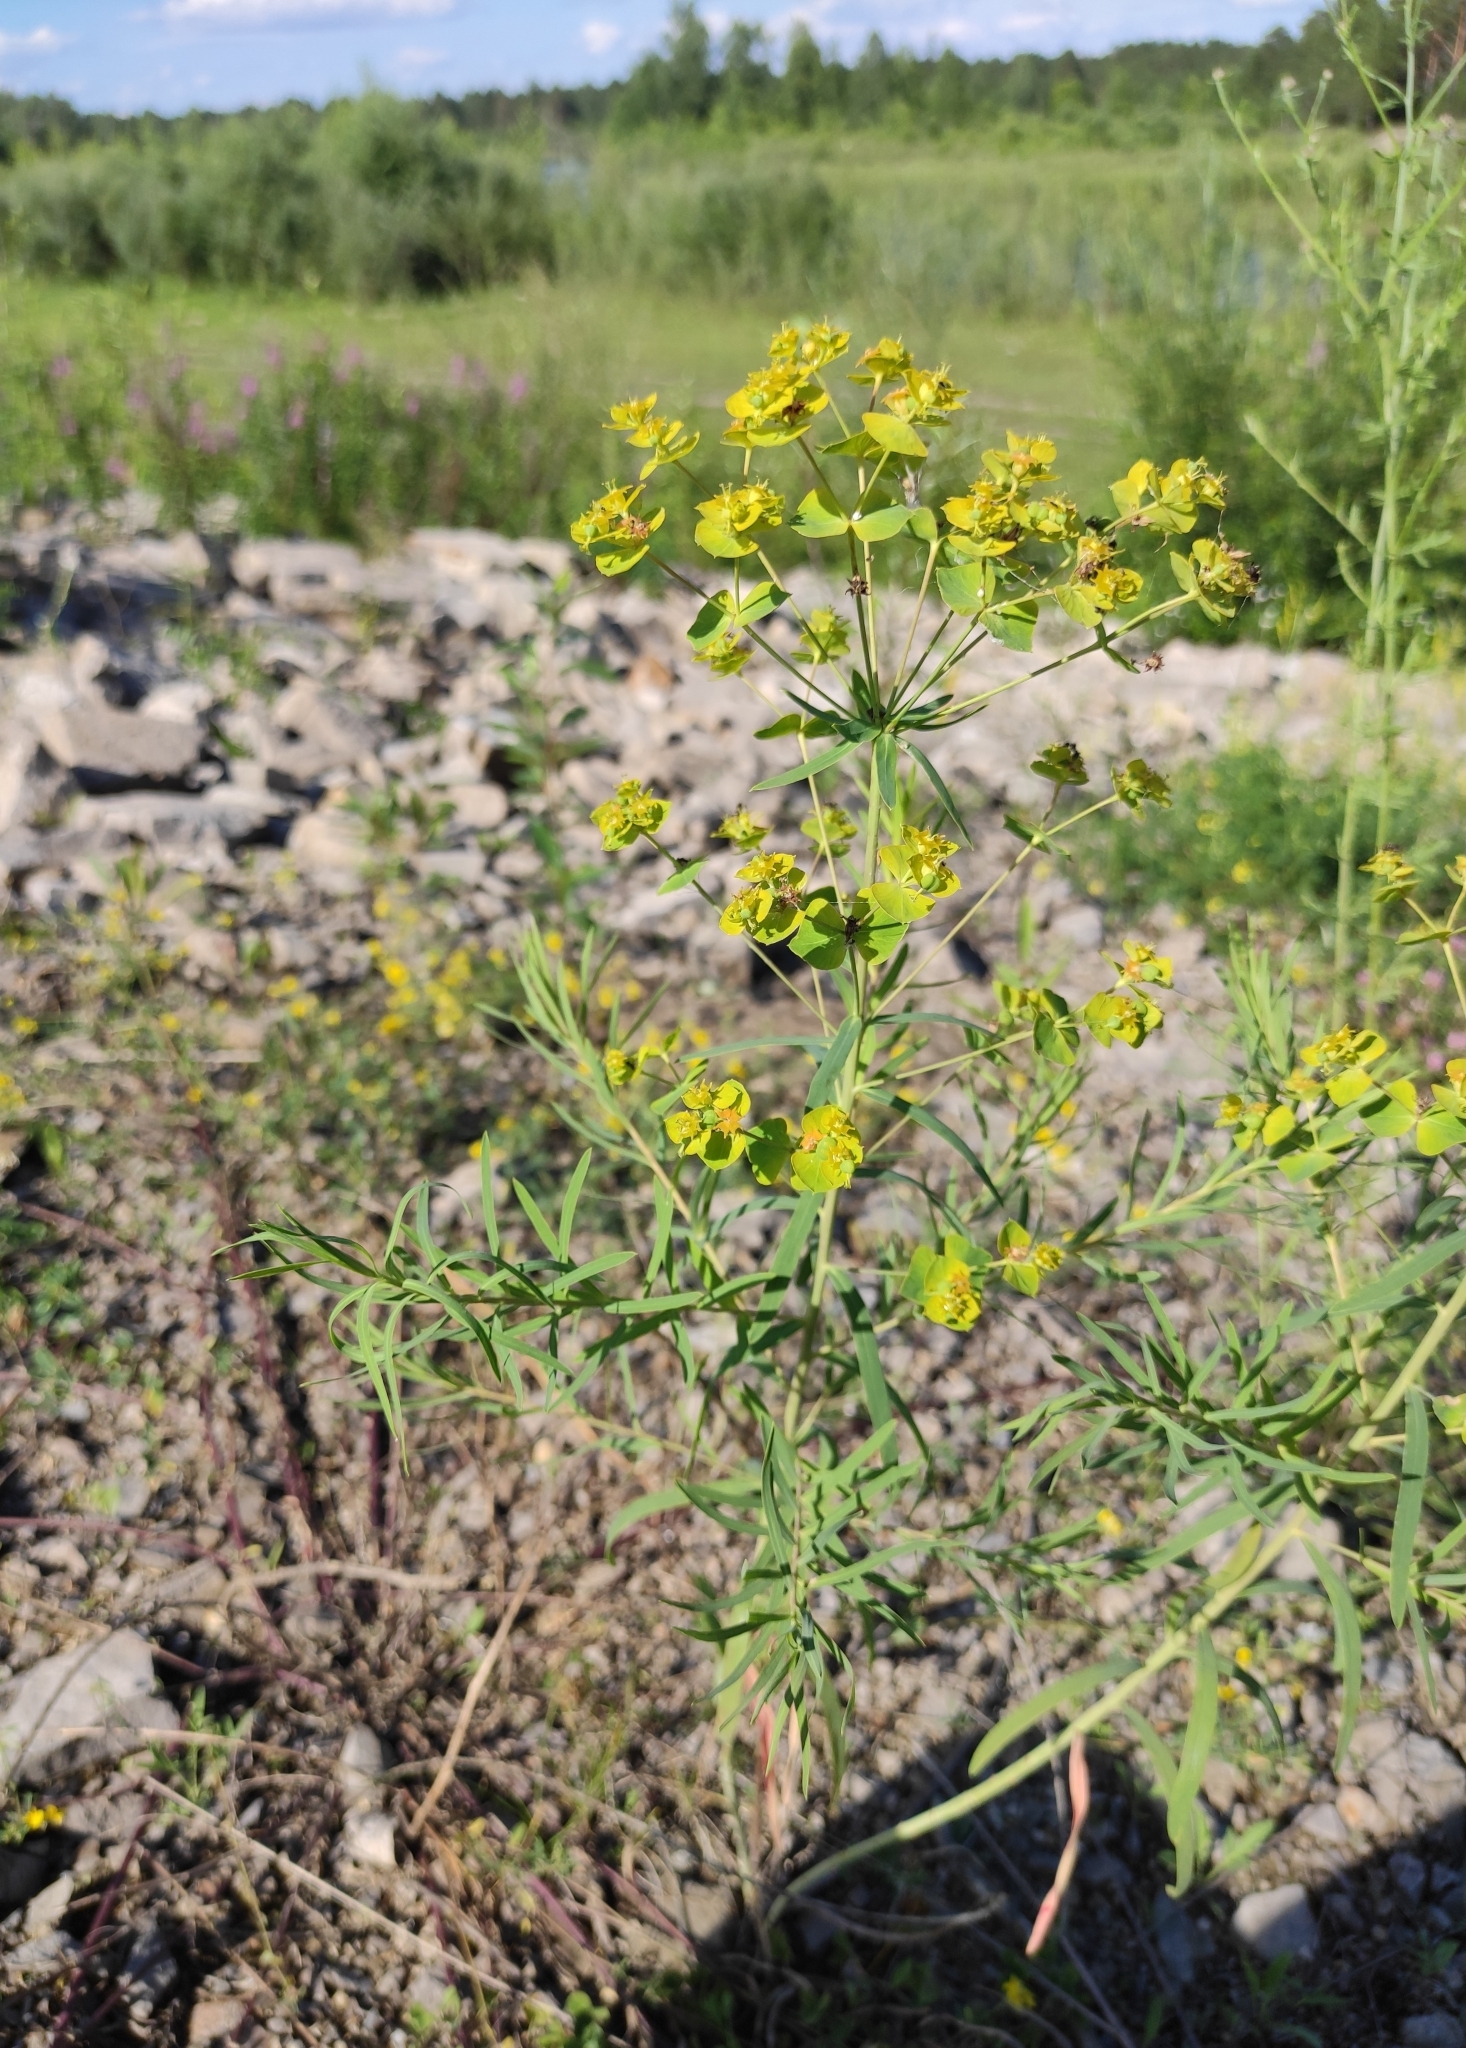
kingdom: Plantae
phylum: Tracheophyta
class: Magnoliopsida
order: Malpighiales
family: Euphorbiaceae
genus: Euphorbia
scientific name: Euphorbia virgata
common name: Leafy spurge
